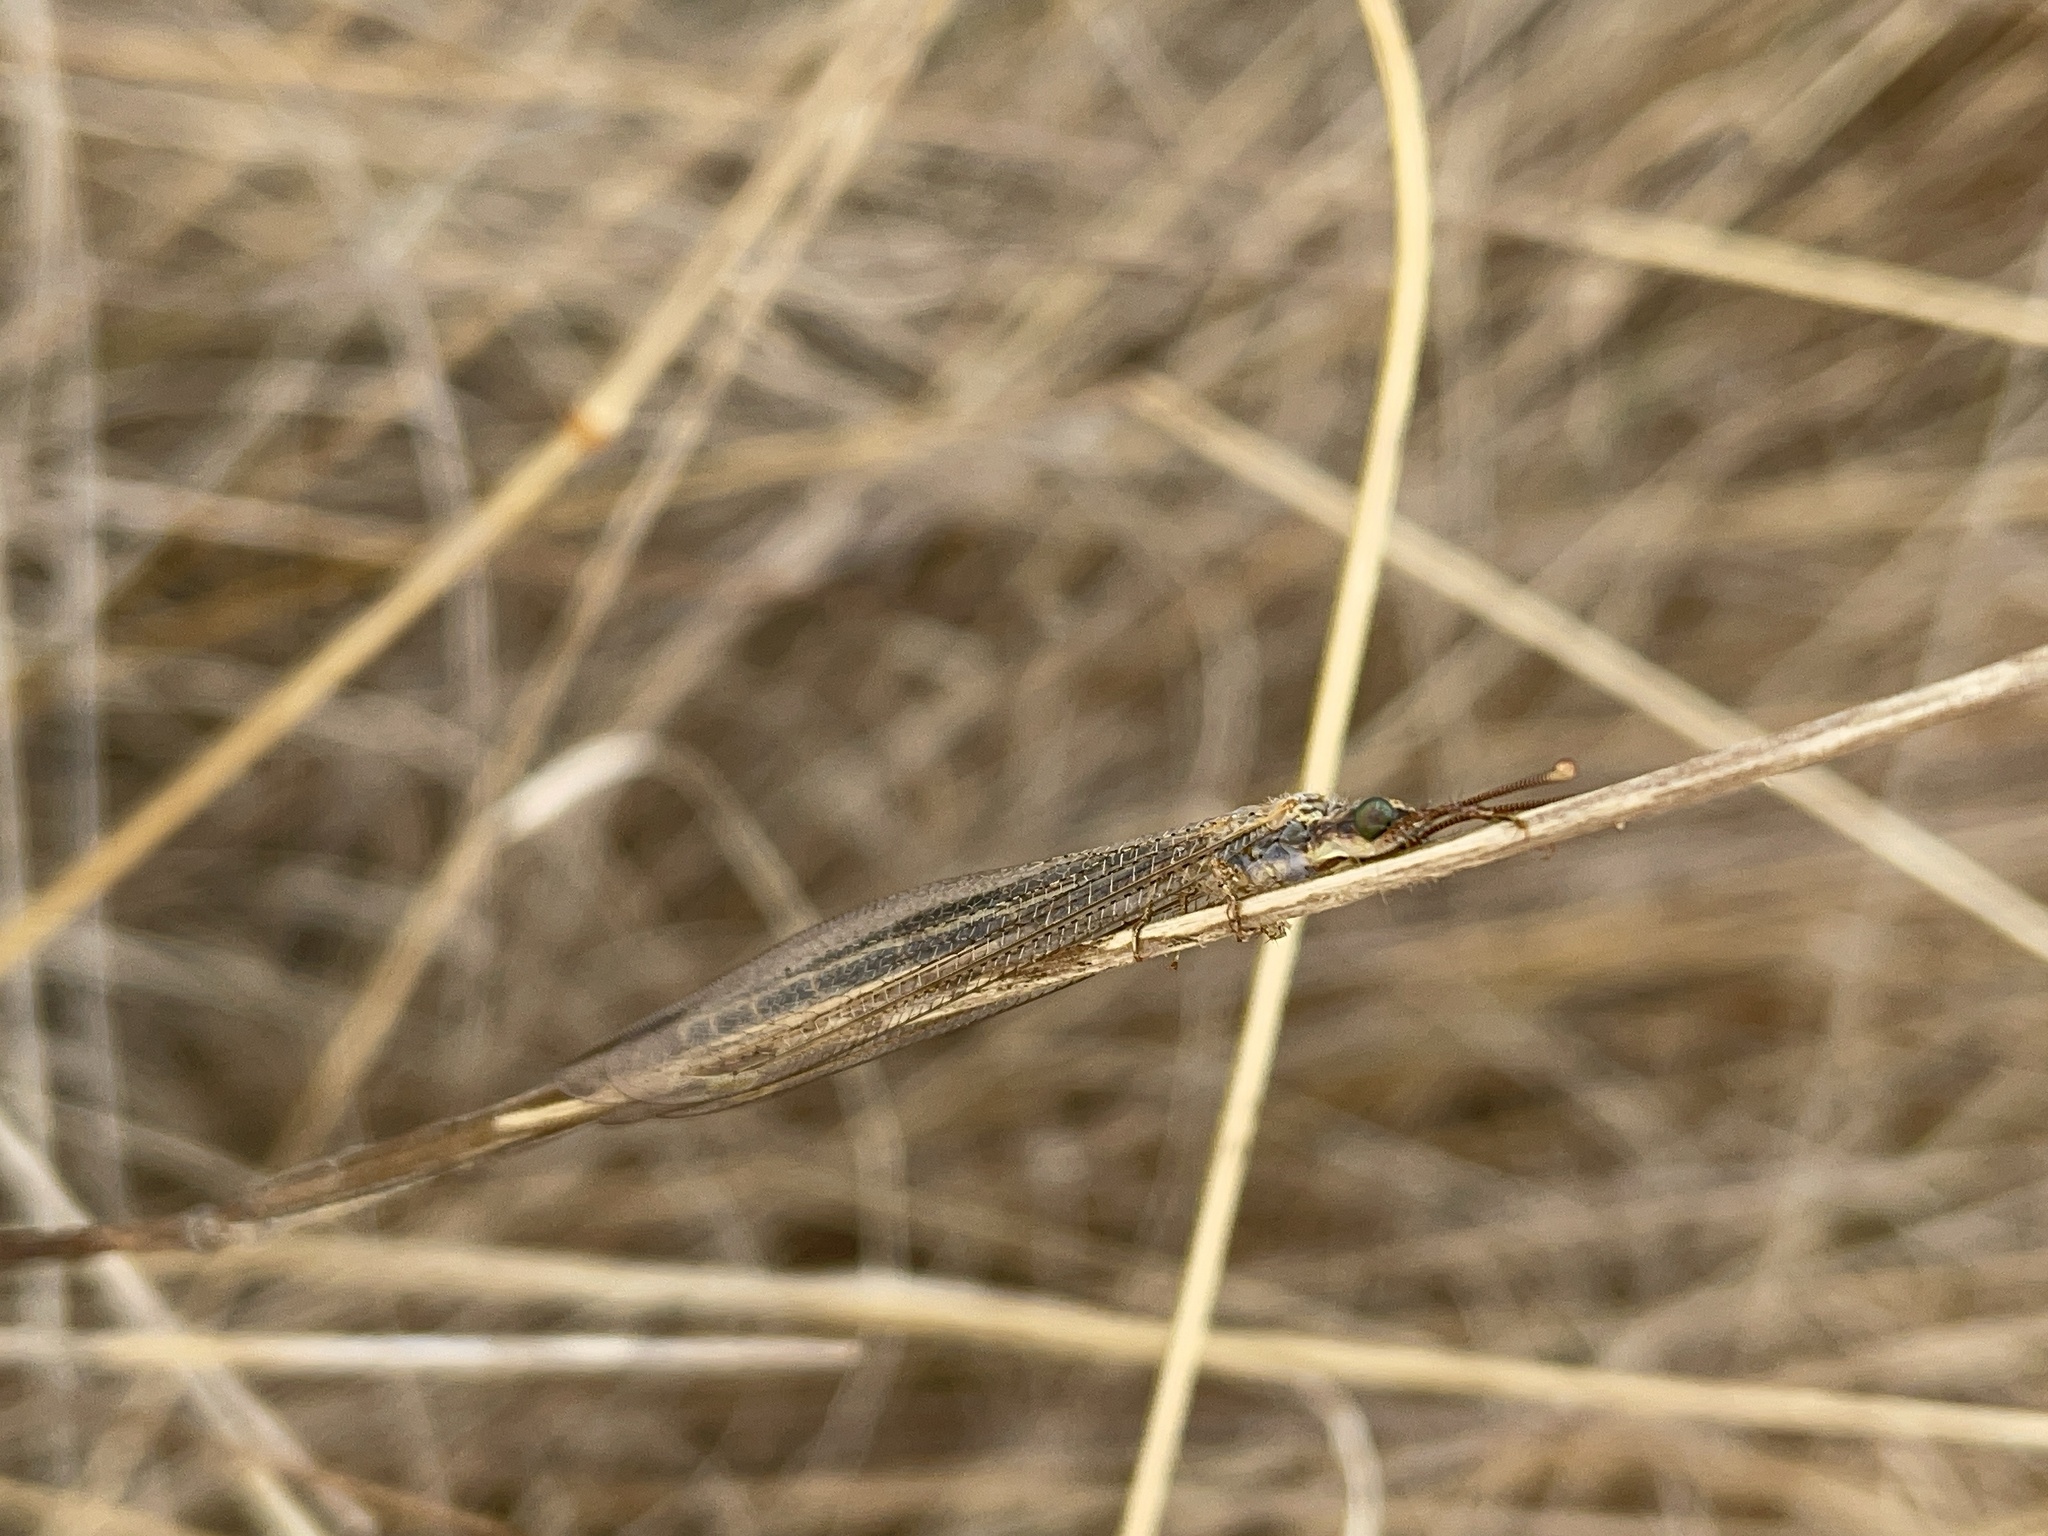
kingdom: Animalia
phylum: Arthropoda
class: Insecta
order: Neuroptera
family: Myrmeleontidae
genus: Distoleon
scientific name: Distoleon bistrigatus
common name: Lacewing
